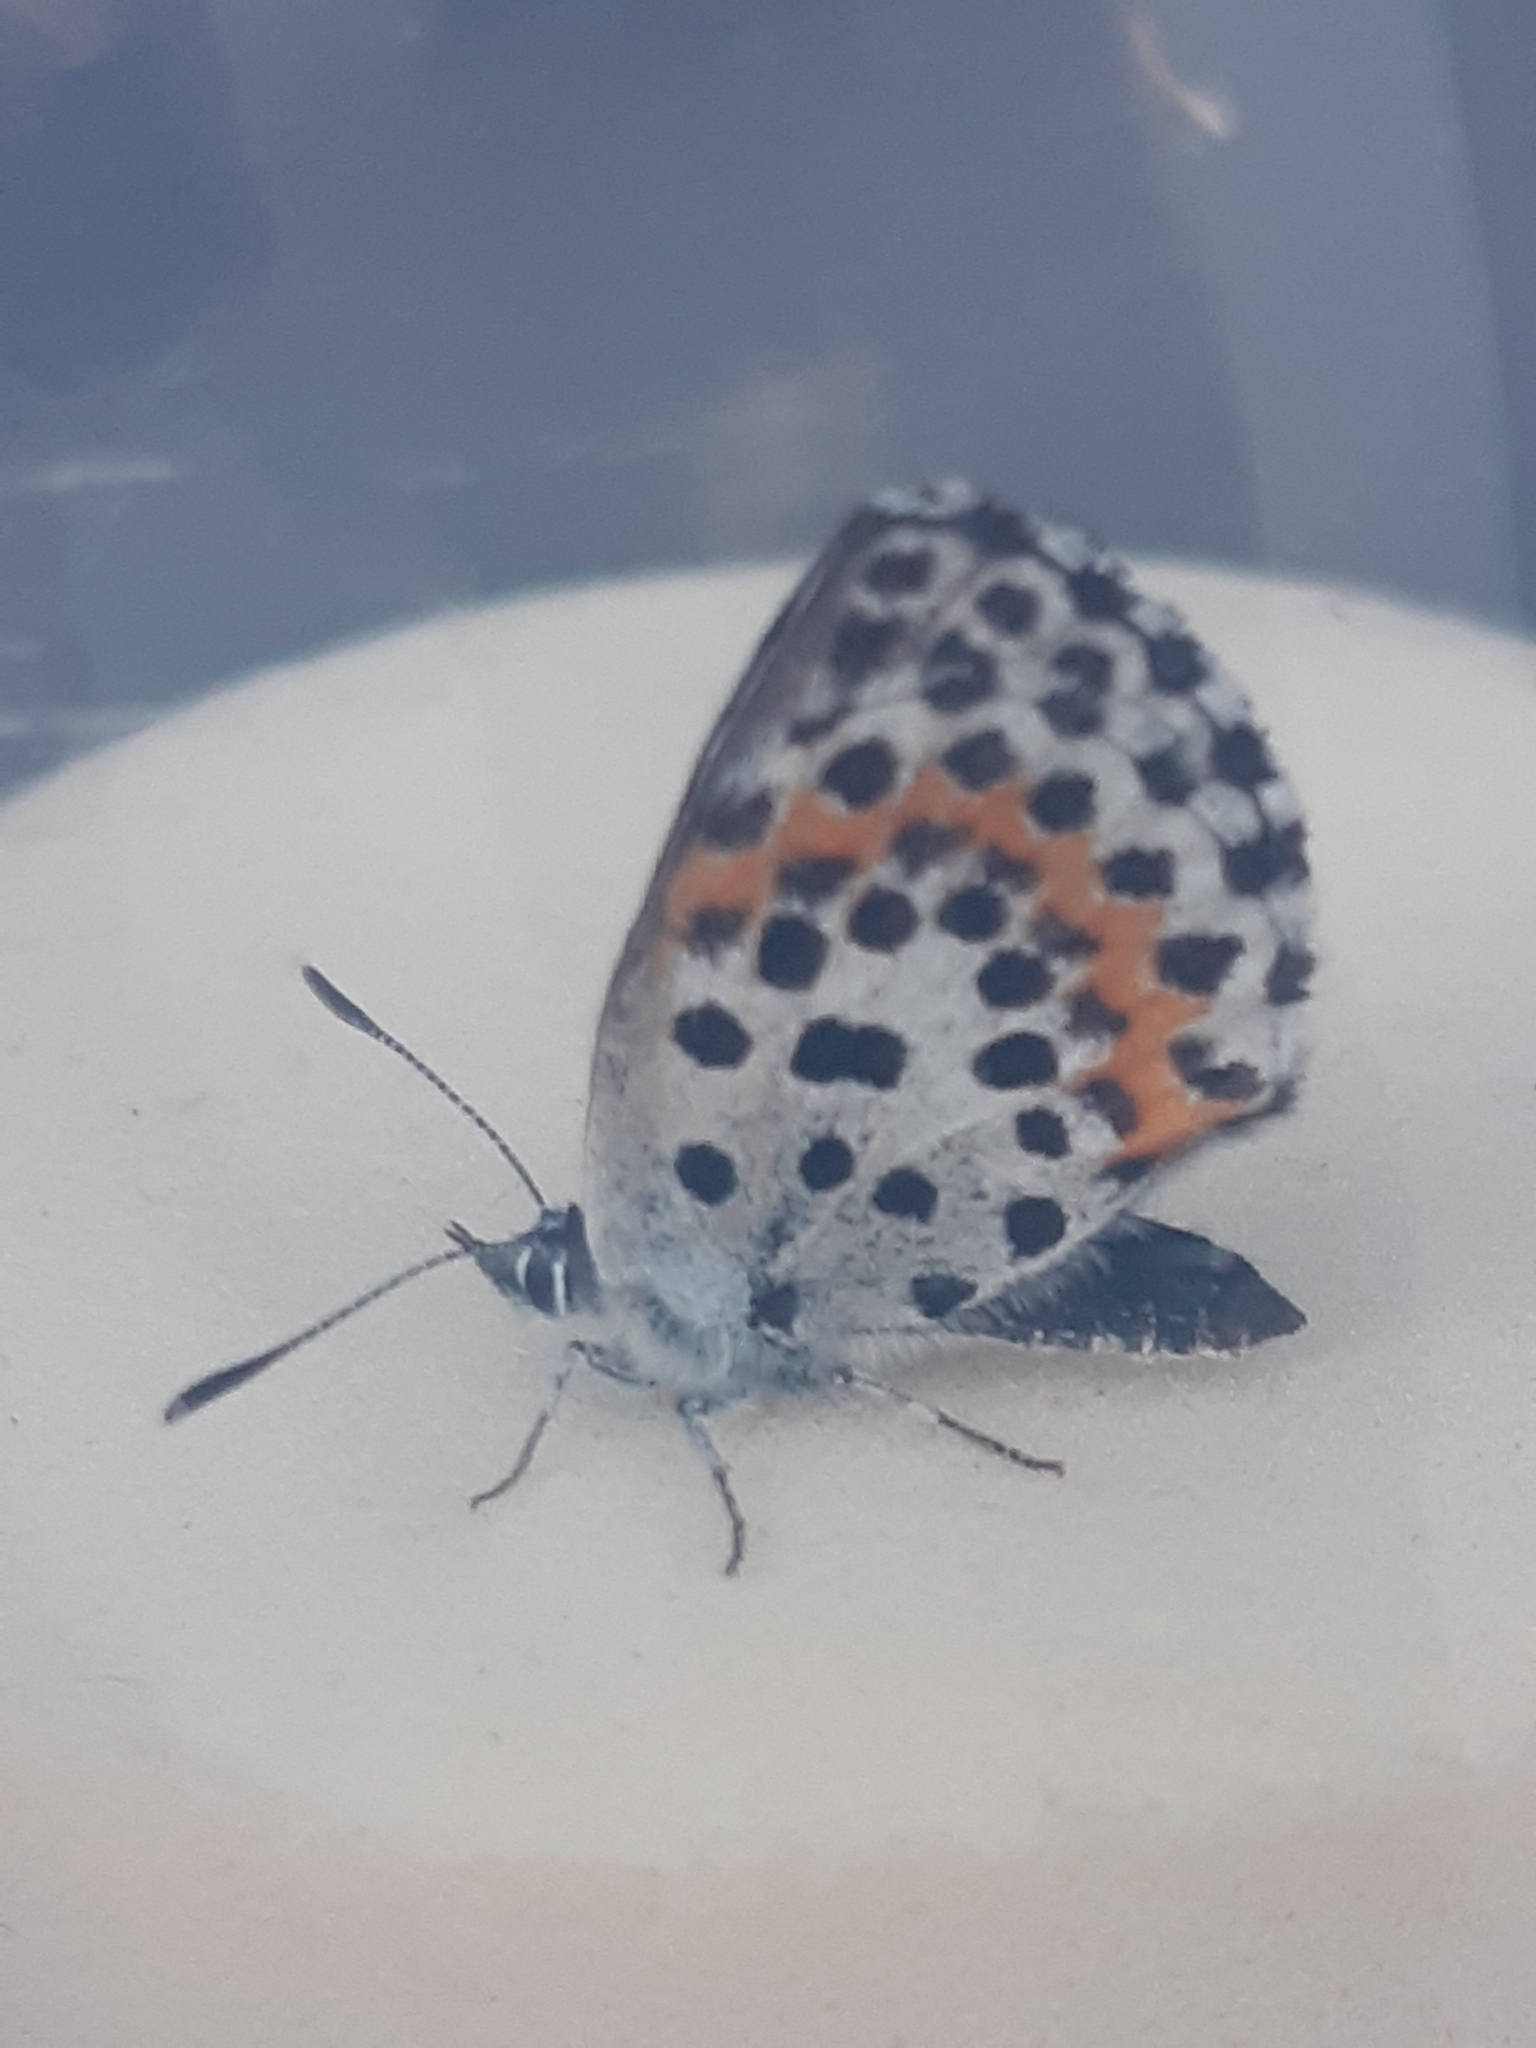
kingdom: Animalia
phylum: Arthropoda
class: Insecta
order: Lepidoptera
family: Lycaenidae
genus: Scolitantides
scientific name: Scolitantides orion
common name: Chequered blue
